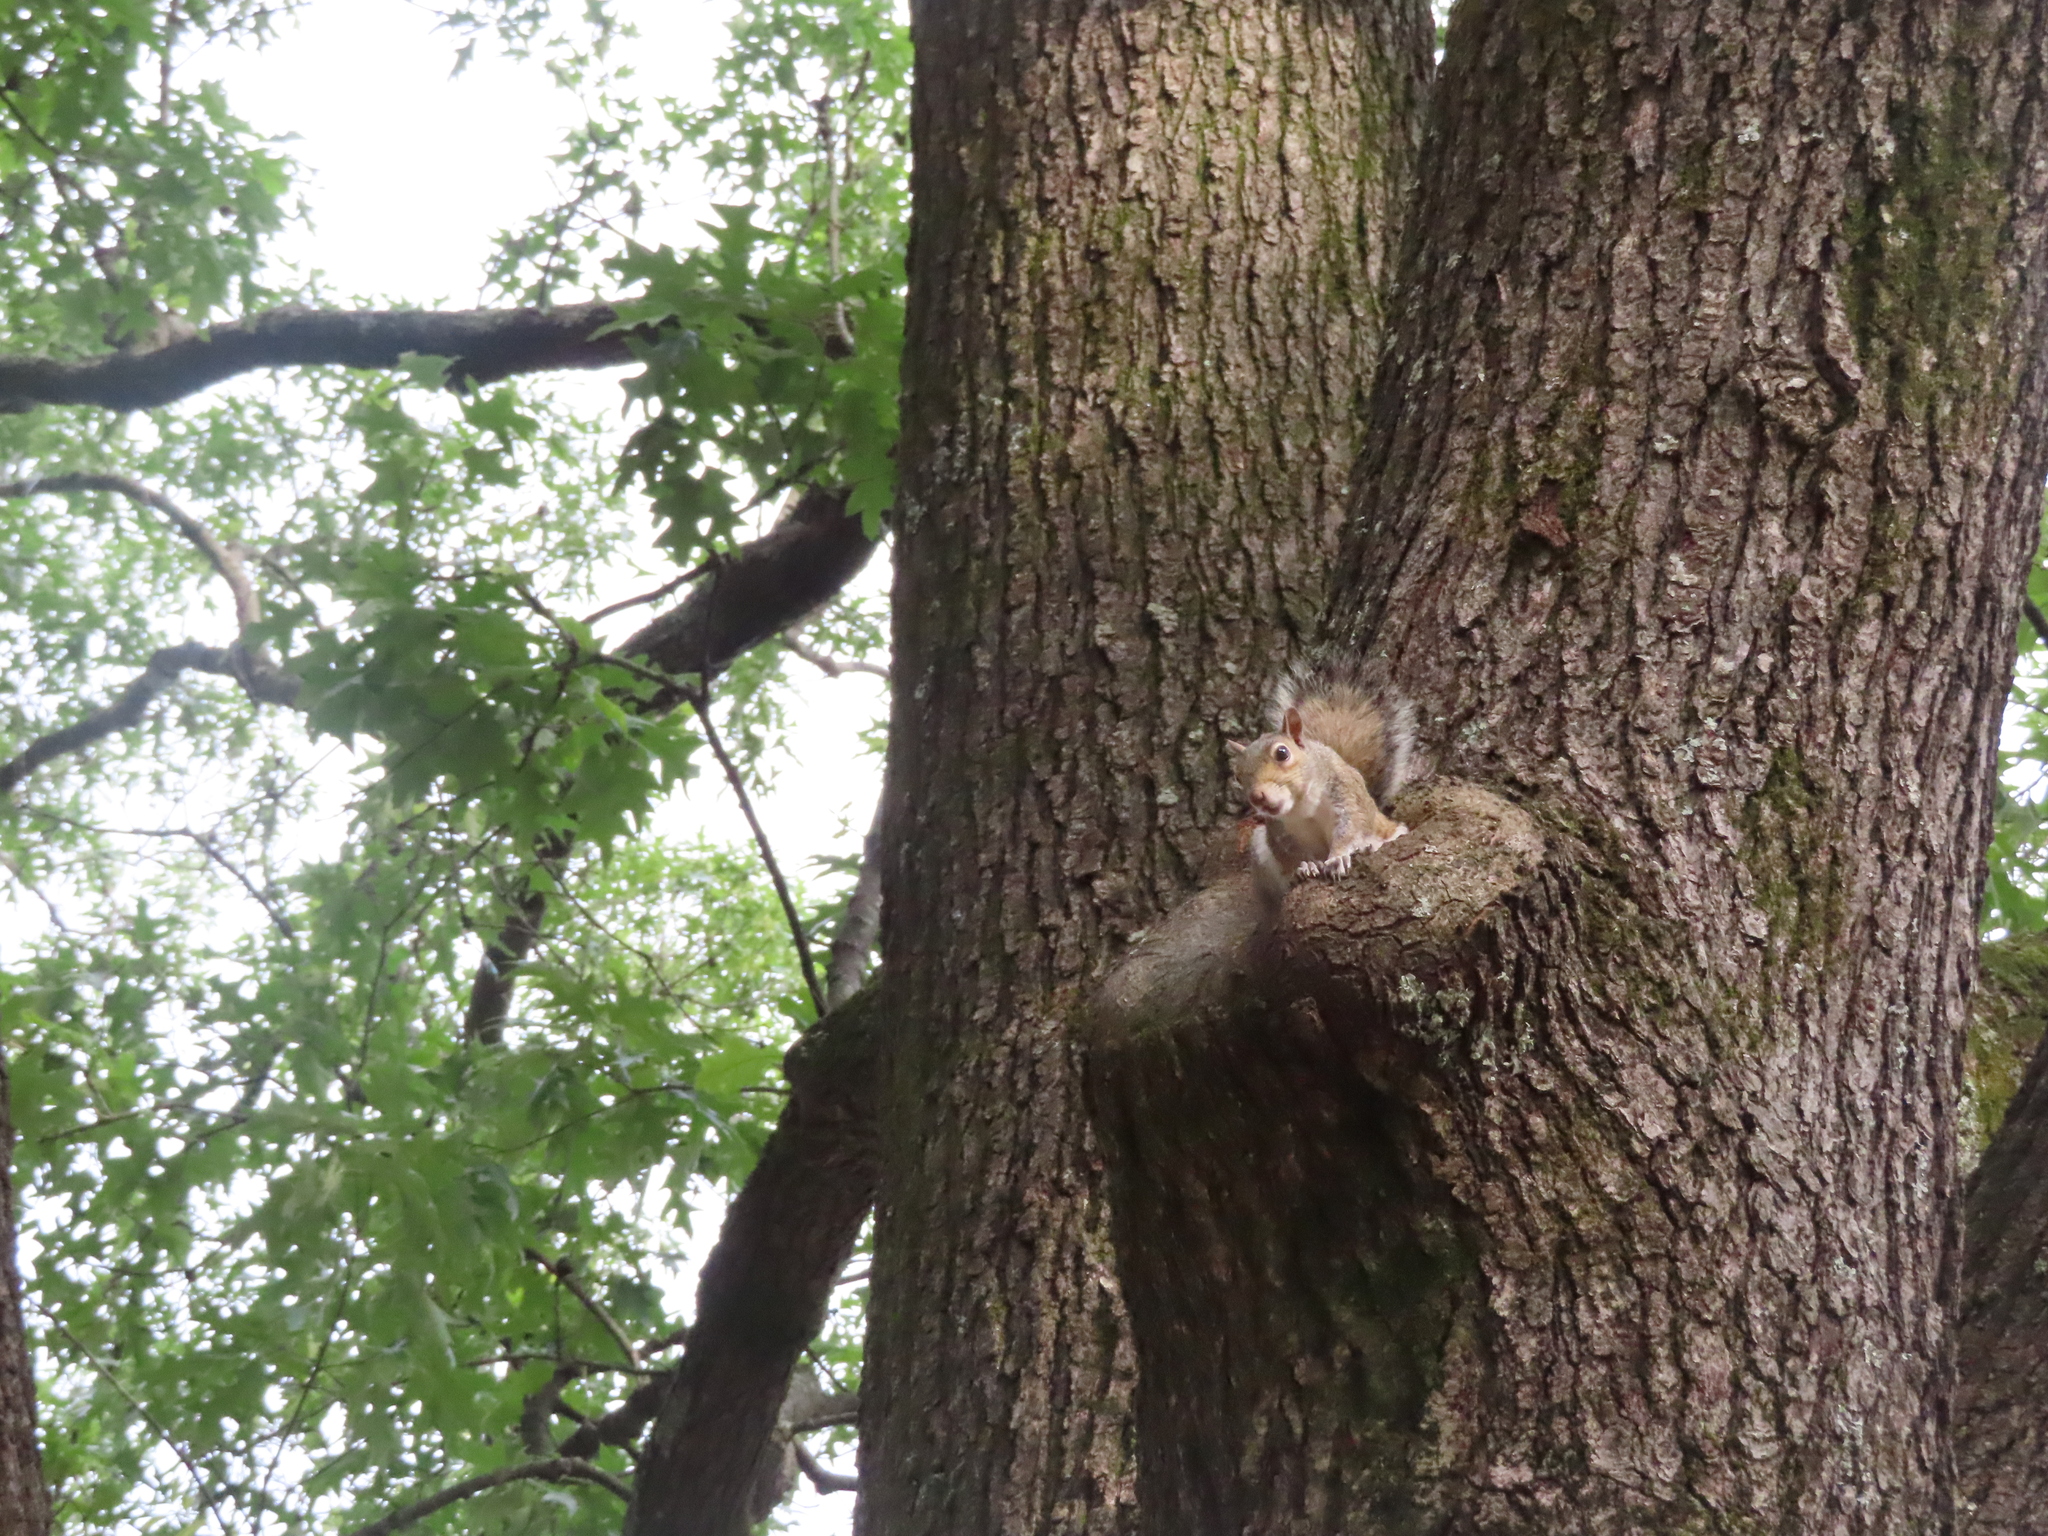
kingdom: Animalia
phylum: Chordata
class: Mammalia
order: Rodentia
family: Sciuridae
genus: Sciurus
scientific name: Sciurus carolinensis
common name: Eastern gray squirrel
